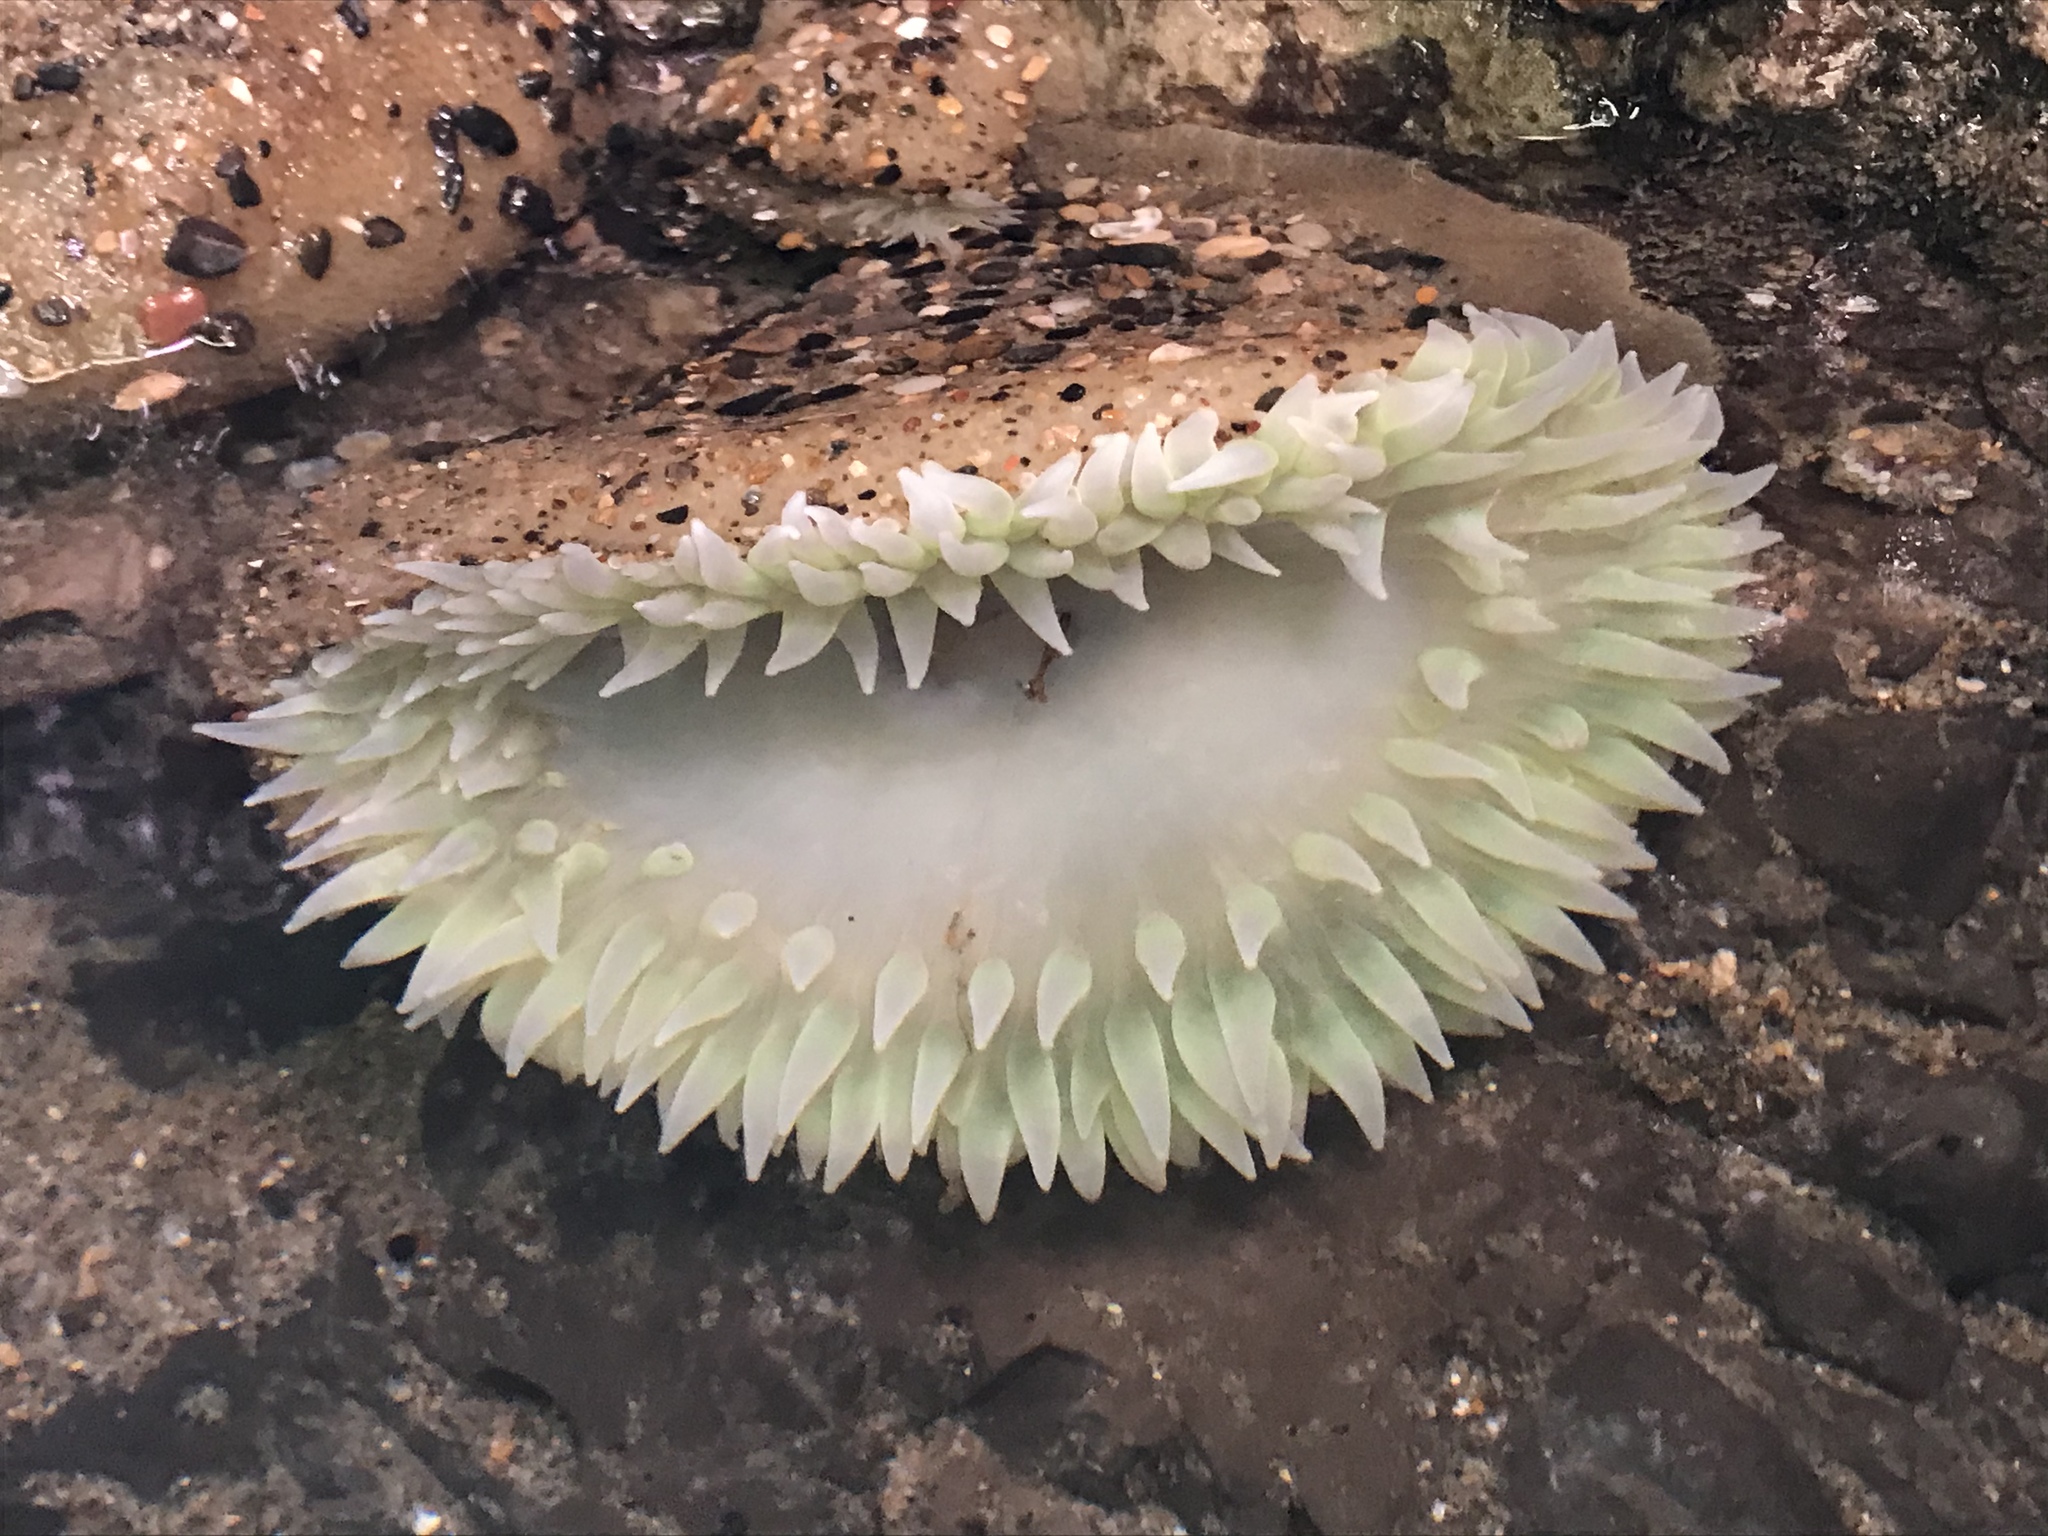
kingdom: Animalia
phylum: Cnidaria
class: Anthozoa
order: Actiniaria
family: Actiniidae
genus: Anthopleura
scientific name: Anthopleura xanthogrammica
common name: Giant green anemone
